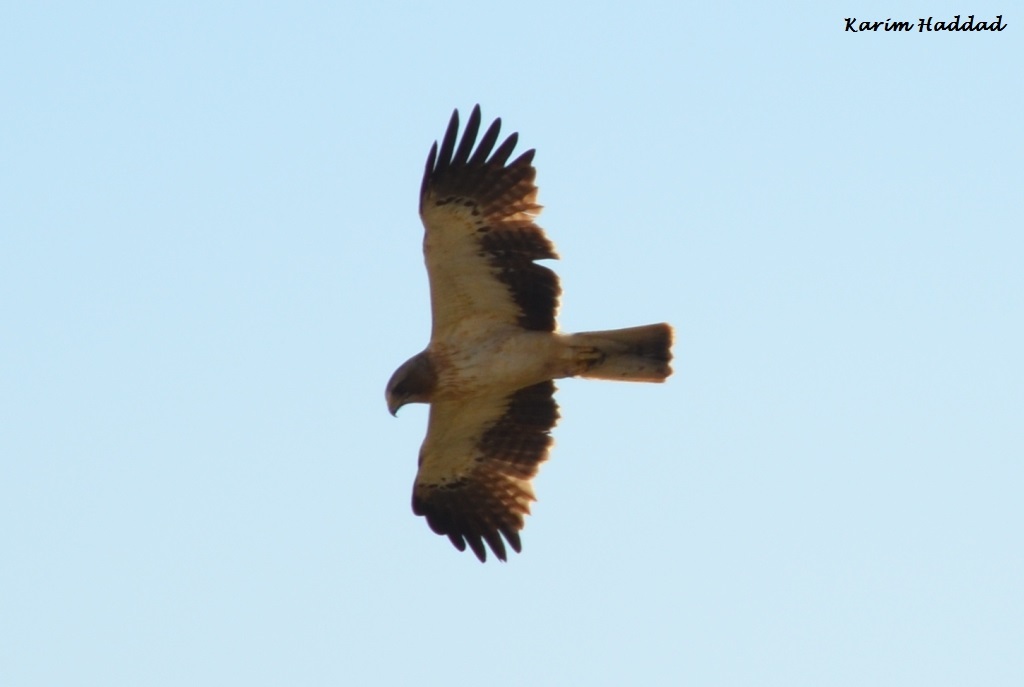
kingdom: Animalia
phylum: Chordata
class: Aves
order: Accipitriformes
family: Accipitridae
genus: Hieraaetus
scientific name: Hieraaetus pennatus
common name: Booted eagle
